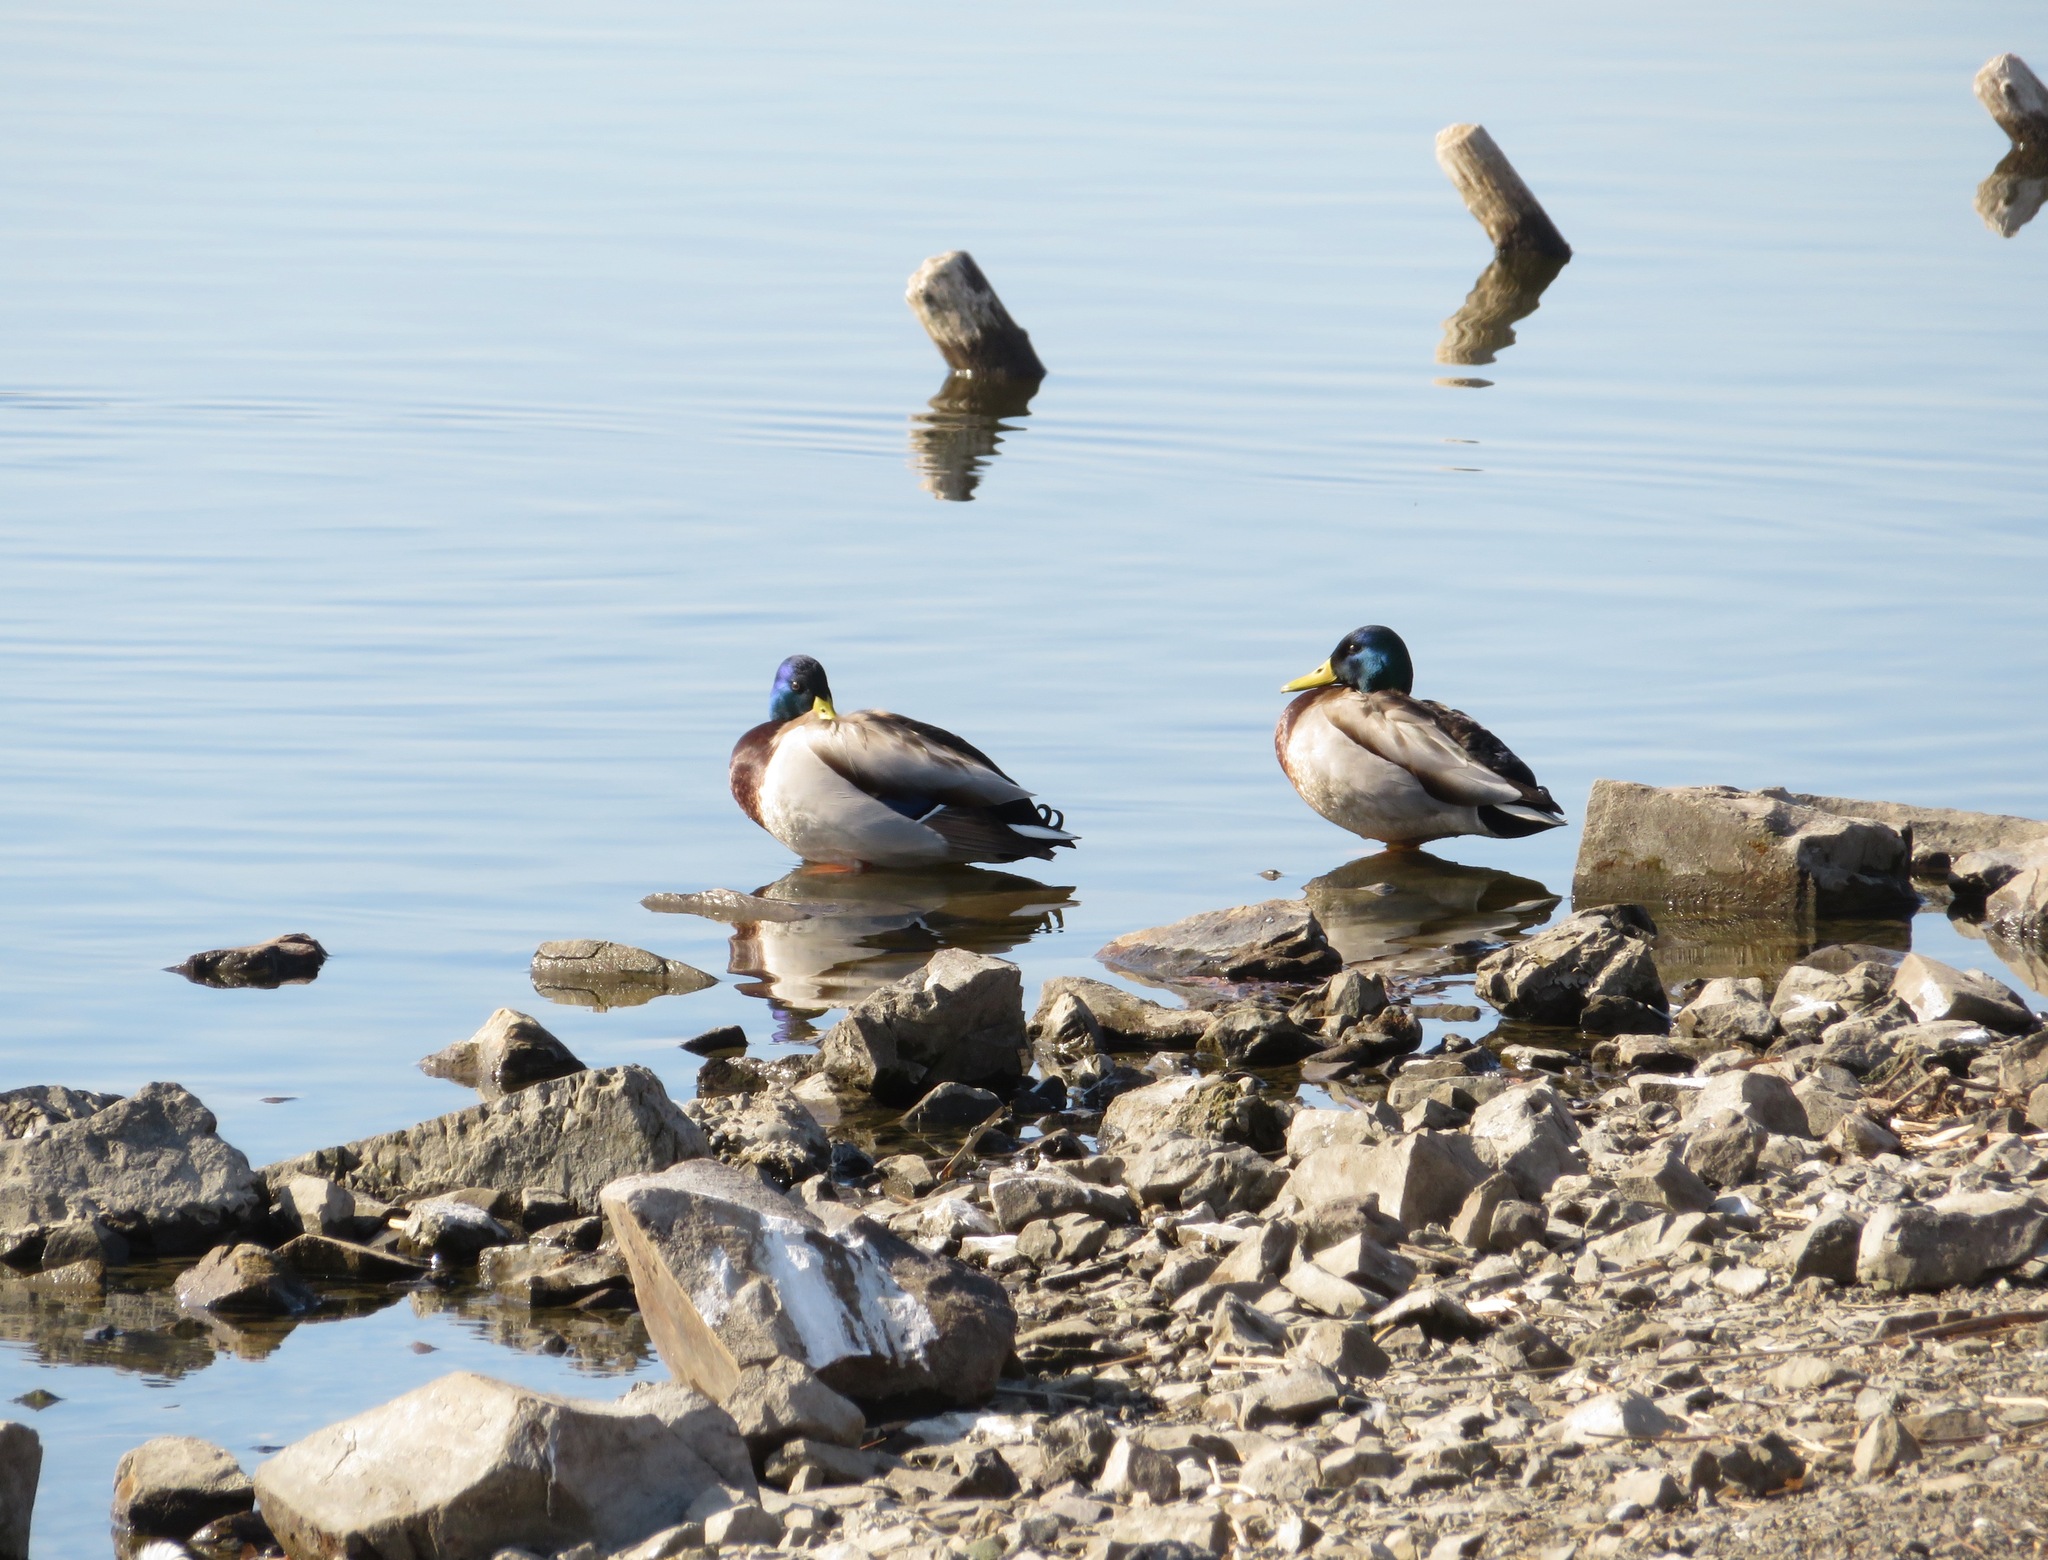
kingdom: Animalia
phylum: Chordata
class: Aves
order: Anseriformes
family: Anatidae
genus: Anas
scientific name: Anas platyrhynchos
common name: Mallard
